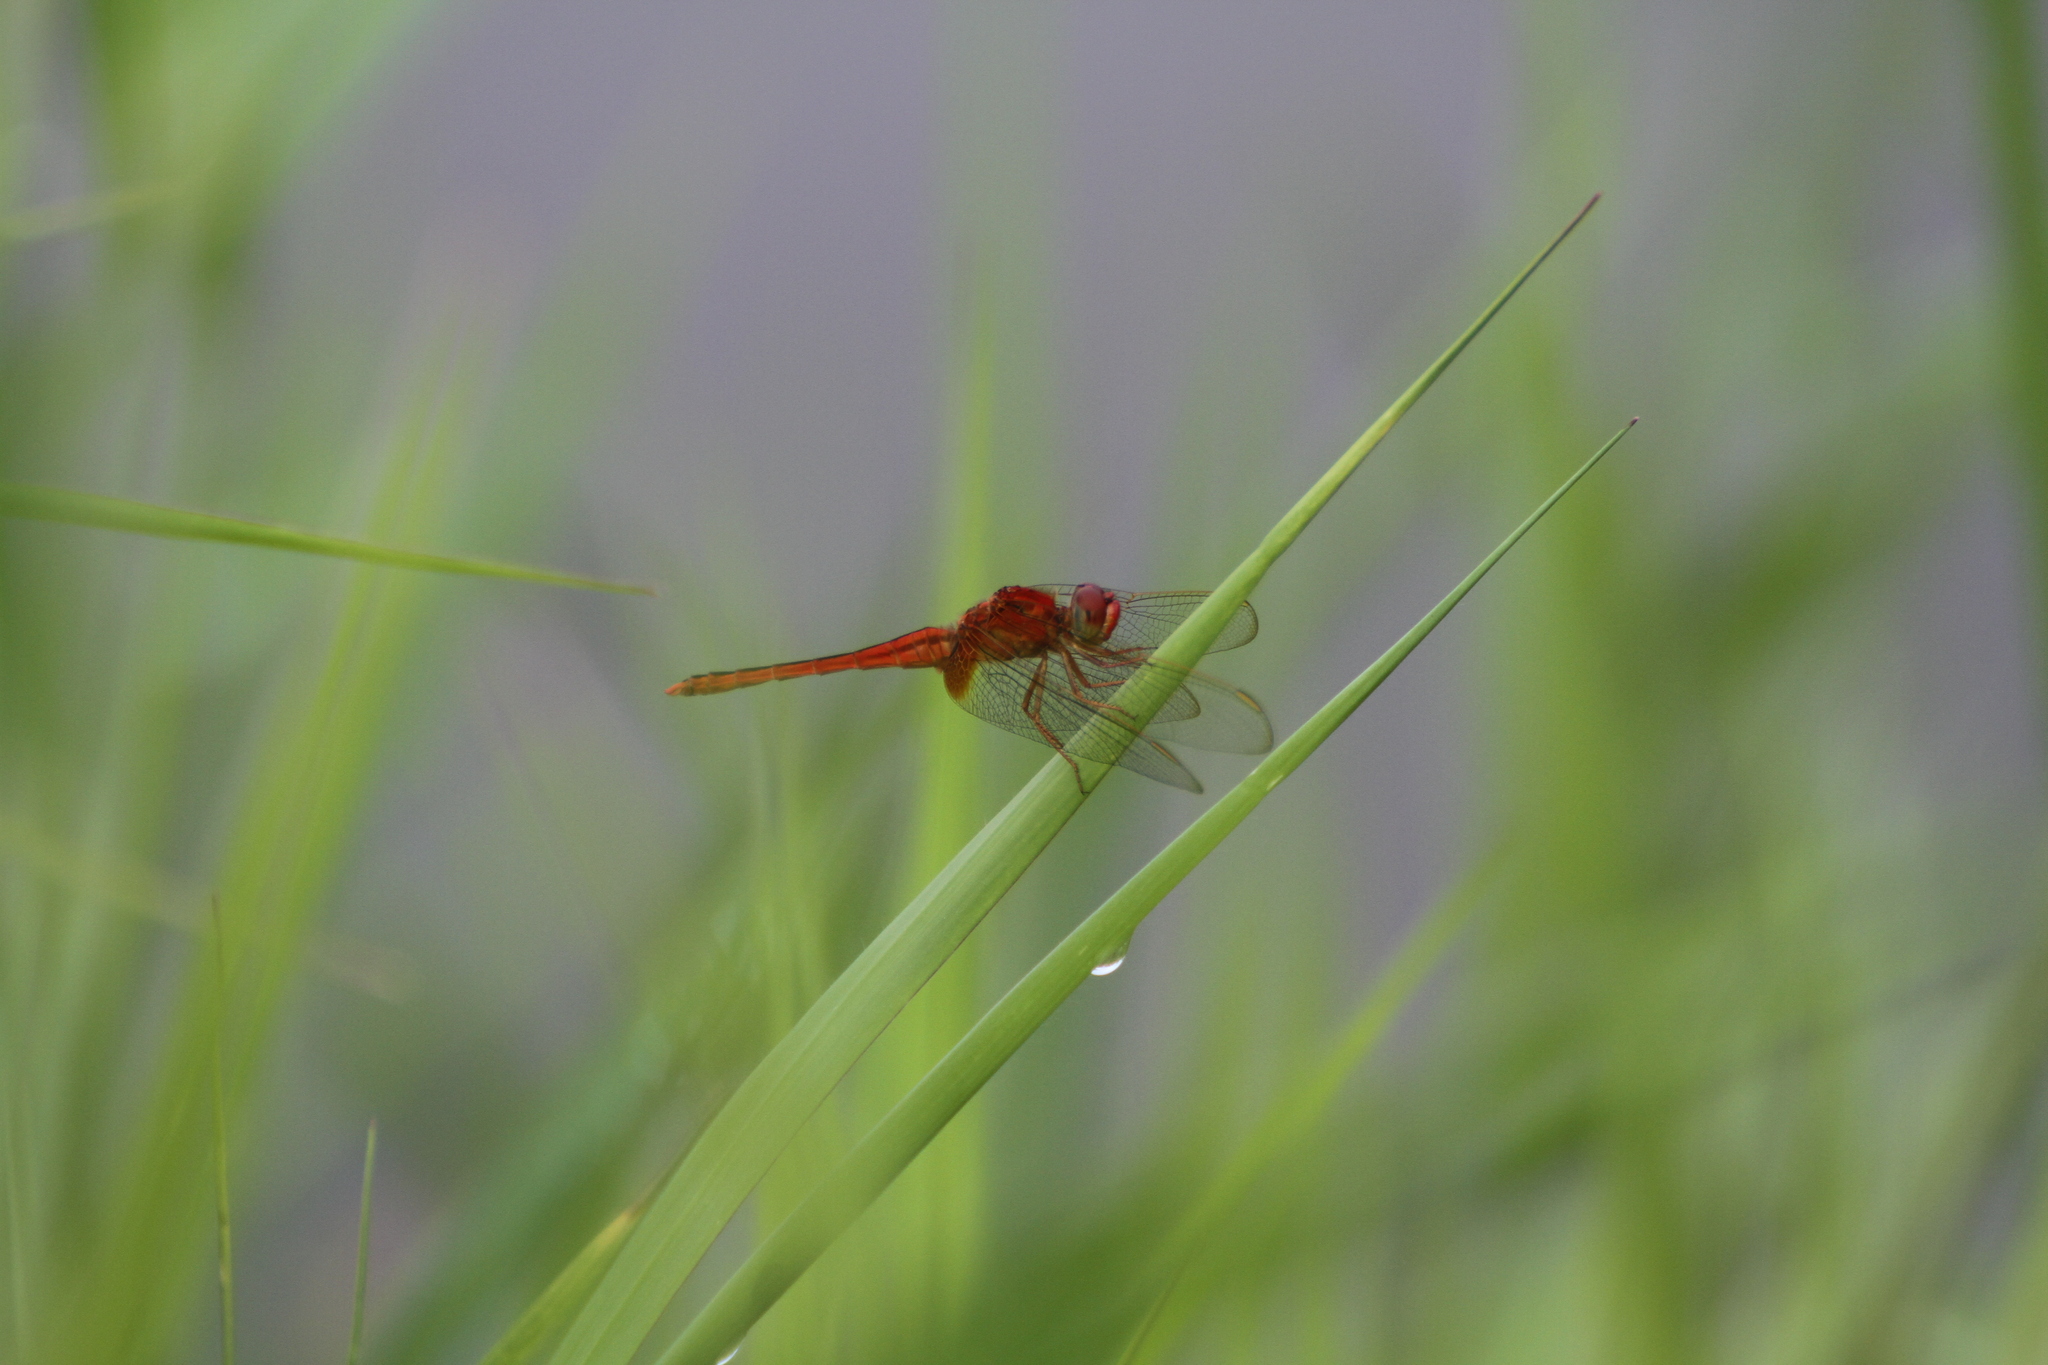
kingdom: Animalia
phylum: Arthropoda
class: Insecta
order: Odonata
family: Libellulidae
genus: Crocothemis
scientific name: Crocothemis servilia
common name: Scarlet skimmer
